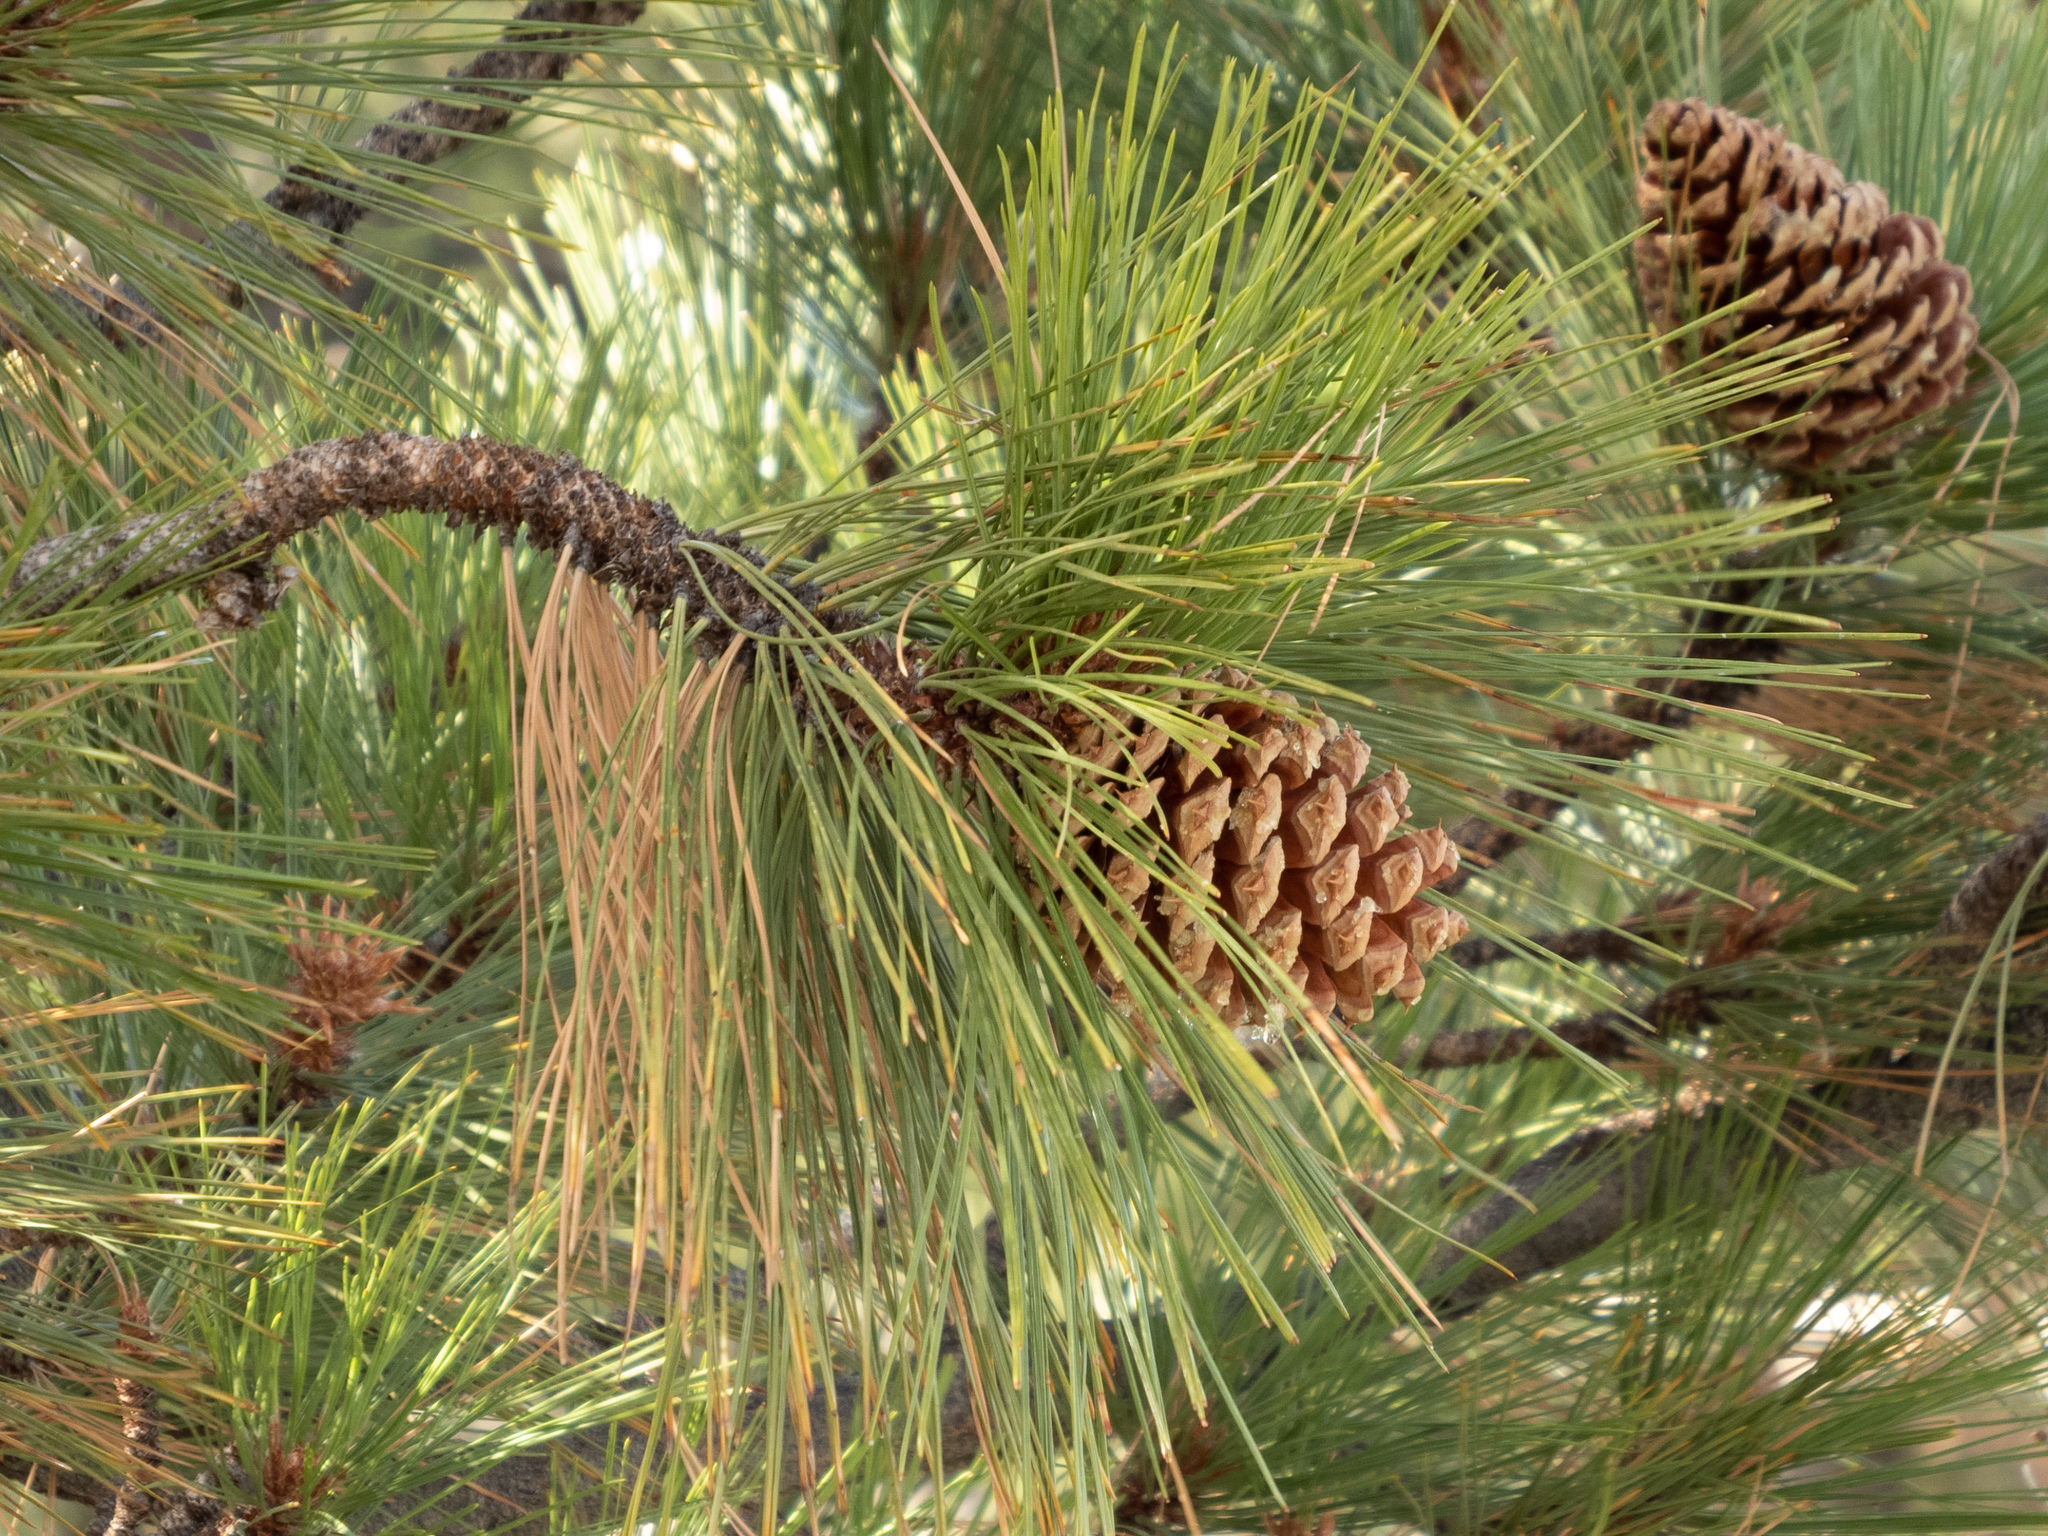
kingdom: Plantae
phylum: Tracheophyta
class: Pinopsida
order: Pinales
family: Pinaceae
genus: Pinus
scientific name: Pinus jeffreyi
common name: Jeffrey pine
